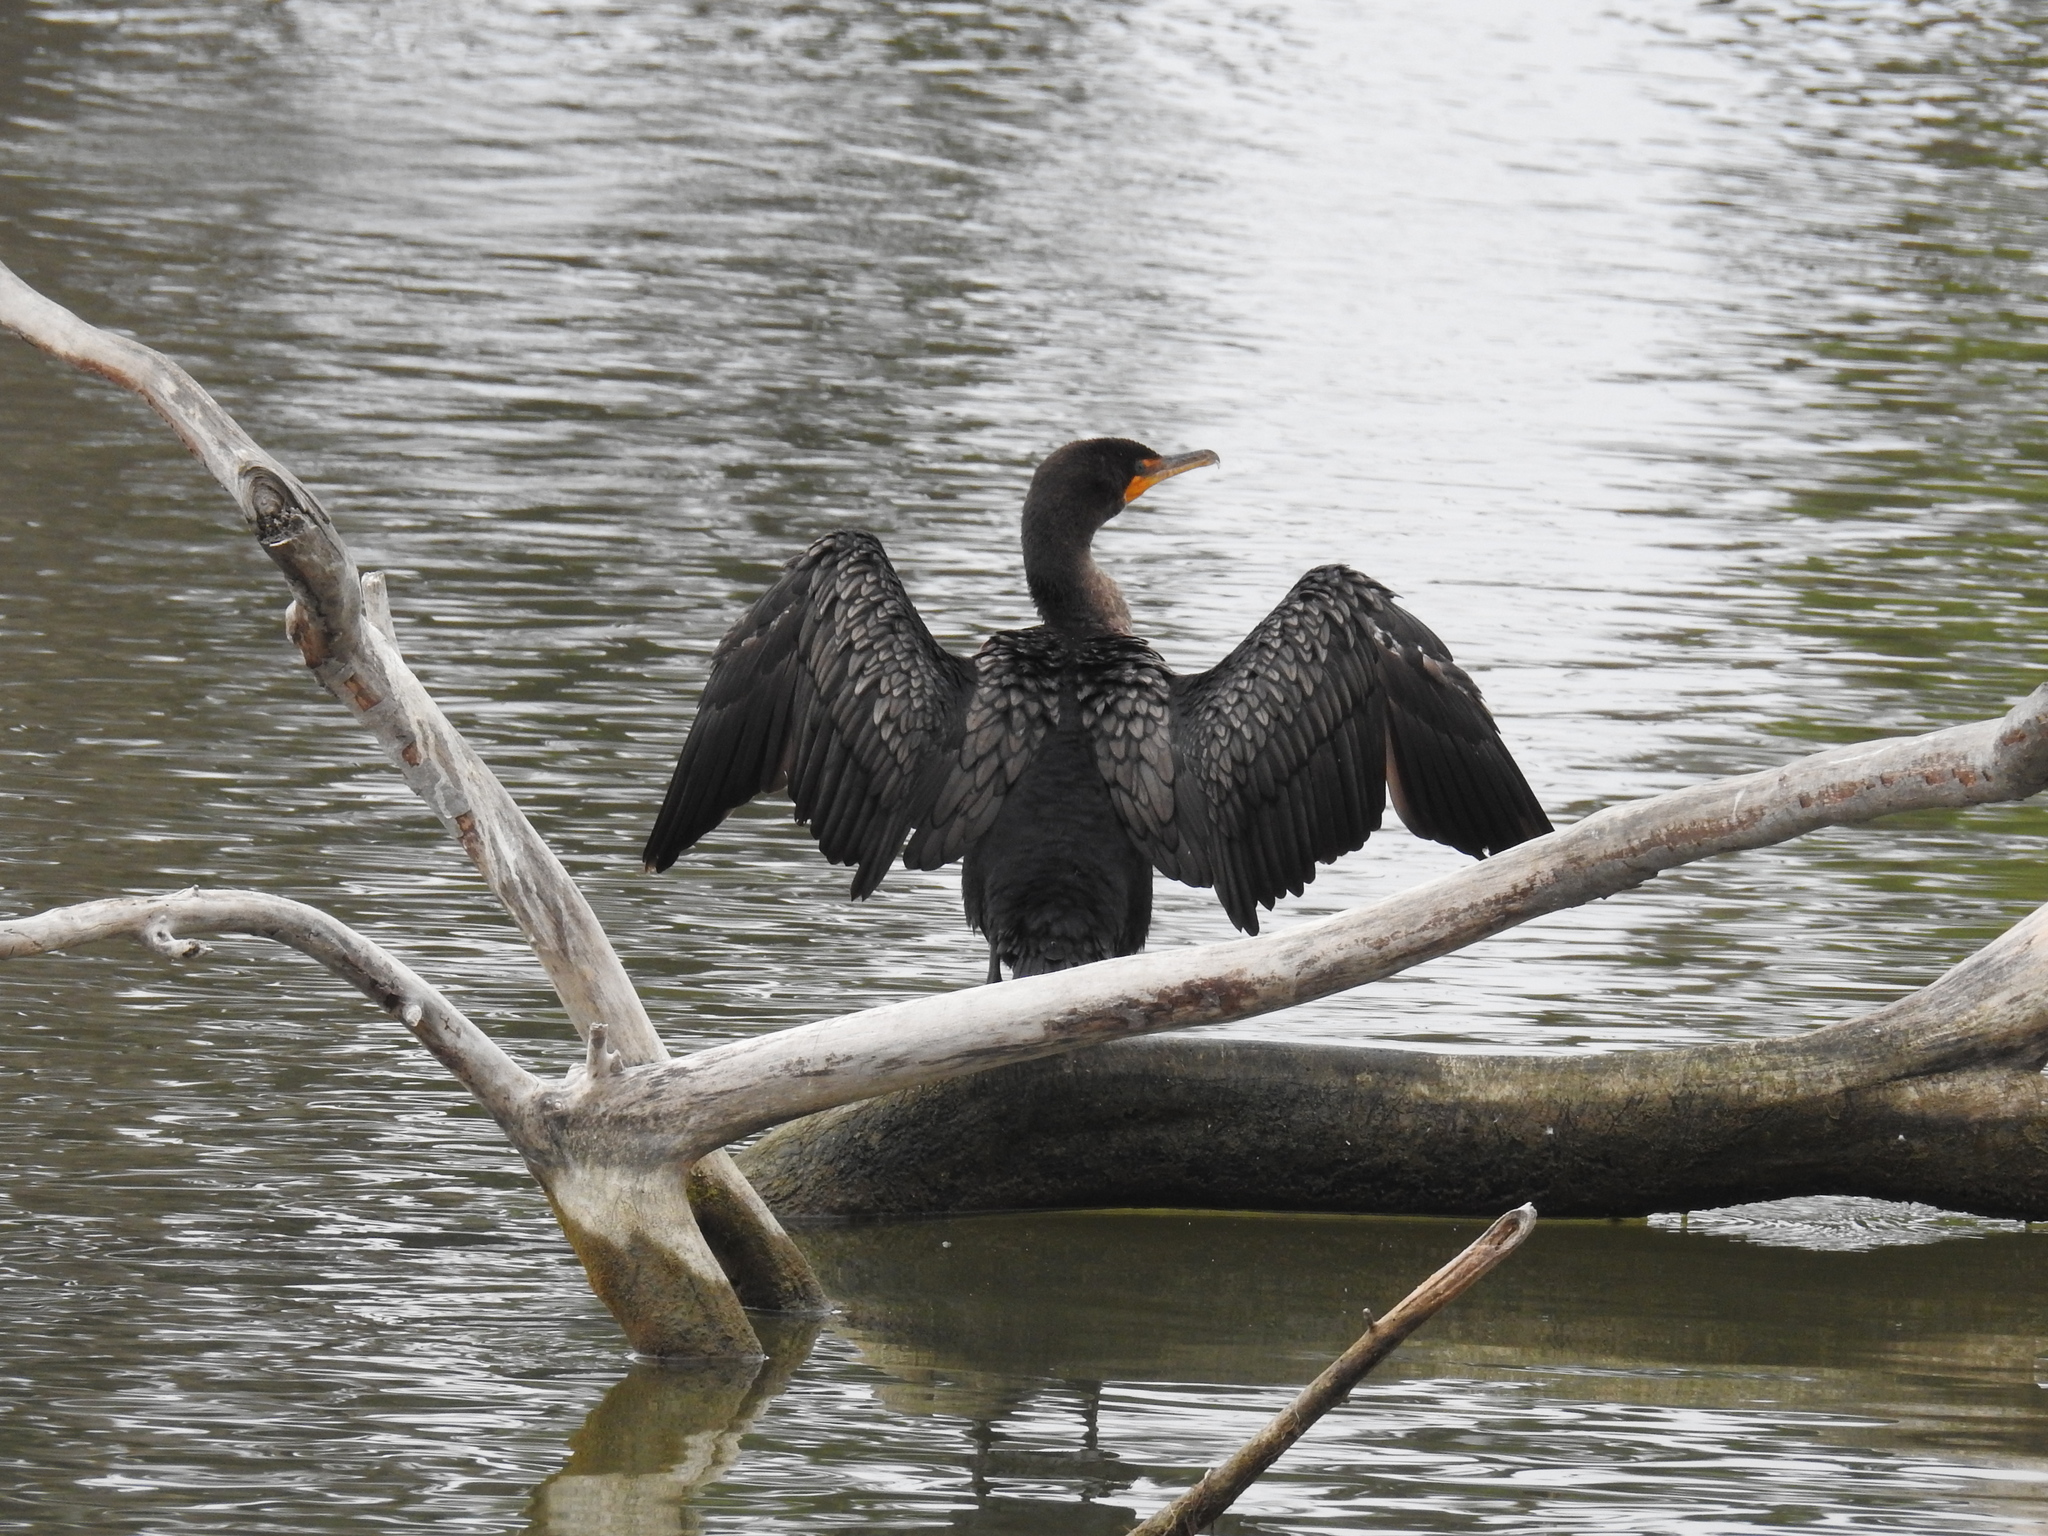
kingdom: Animalia
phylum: Chordata
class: Aves
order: Suliformes
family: Phalacrocoracidae
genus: Phalacrocorax
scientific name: Phalacrocorax auritus
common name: Double-crested cormorant
